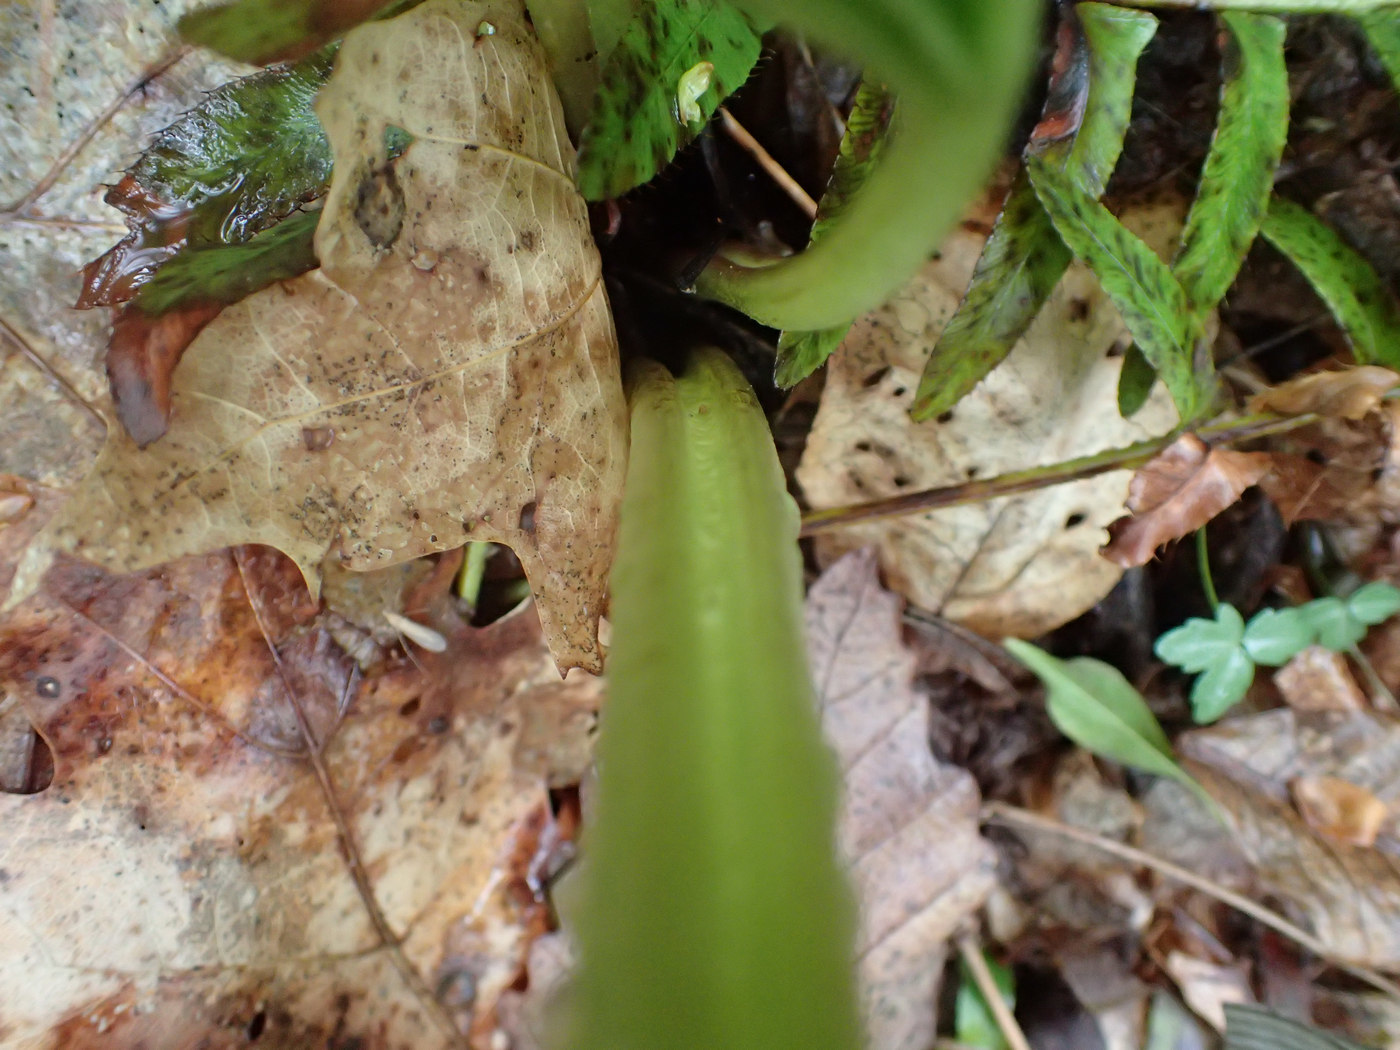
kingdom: Plantae
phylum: Tracheophyta
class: Magnoliopsida
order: Asterales
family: Asteraceae
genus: Arnoglossum
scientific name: Arnoglossum reniforme
